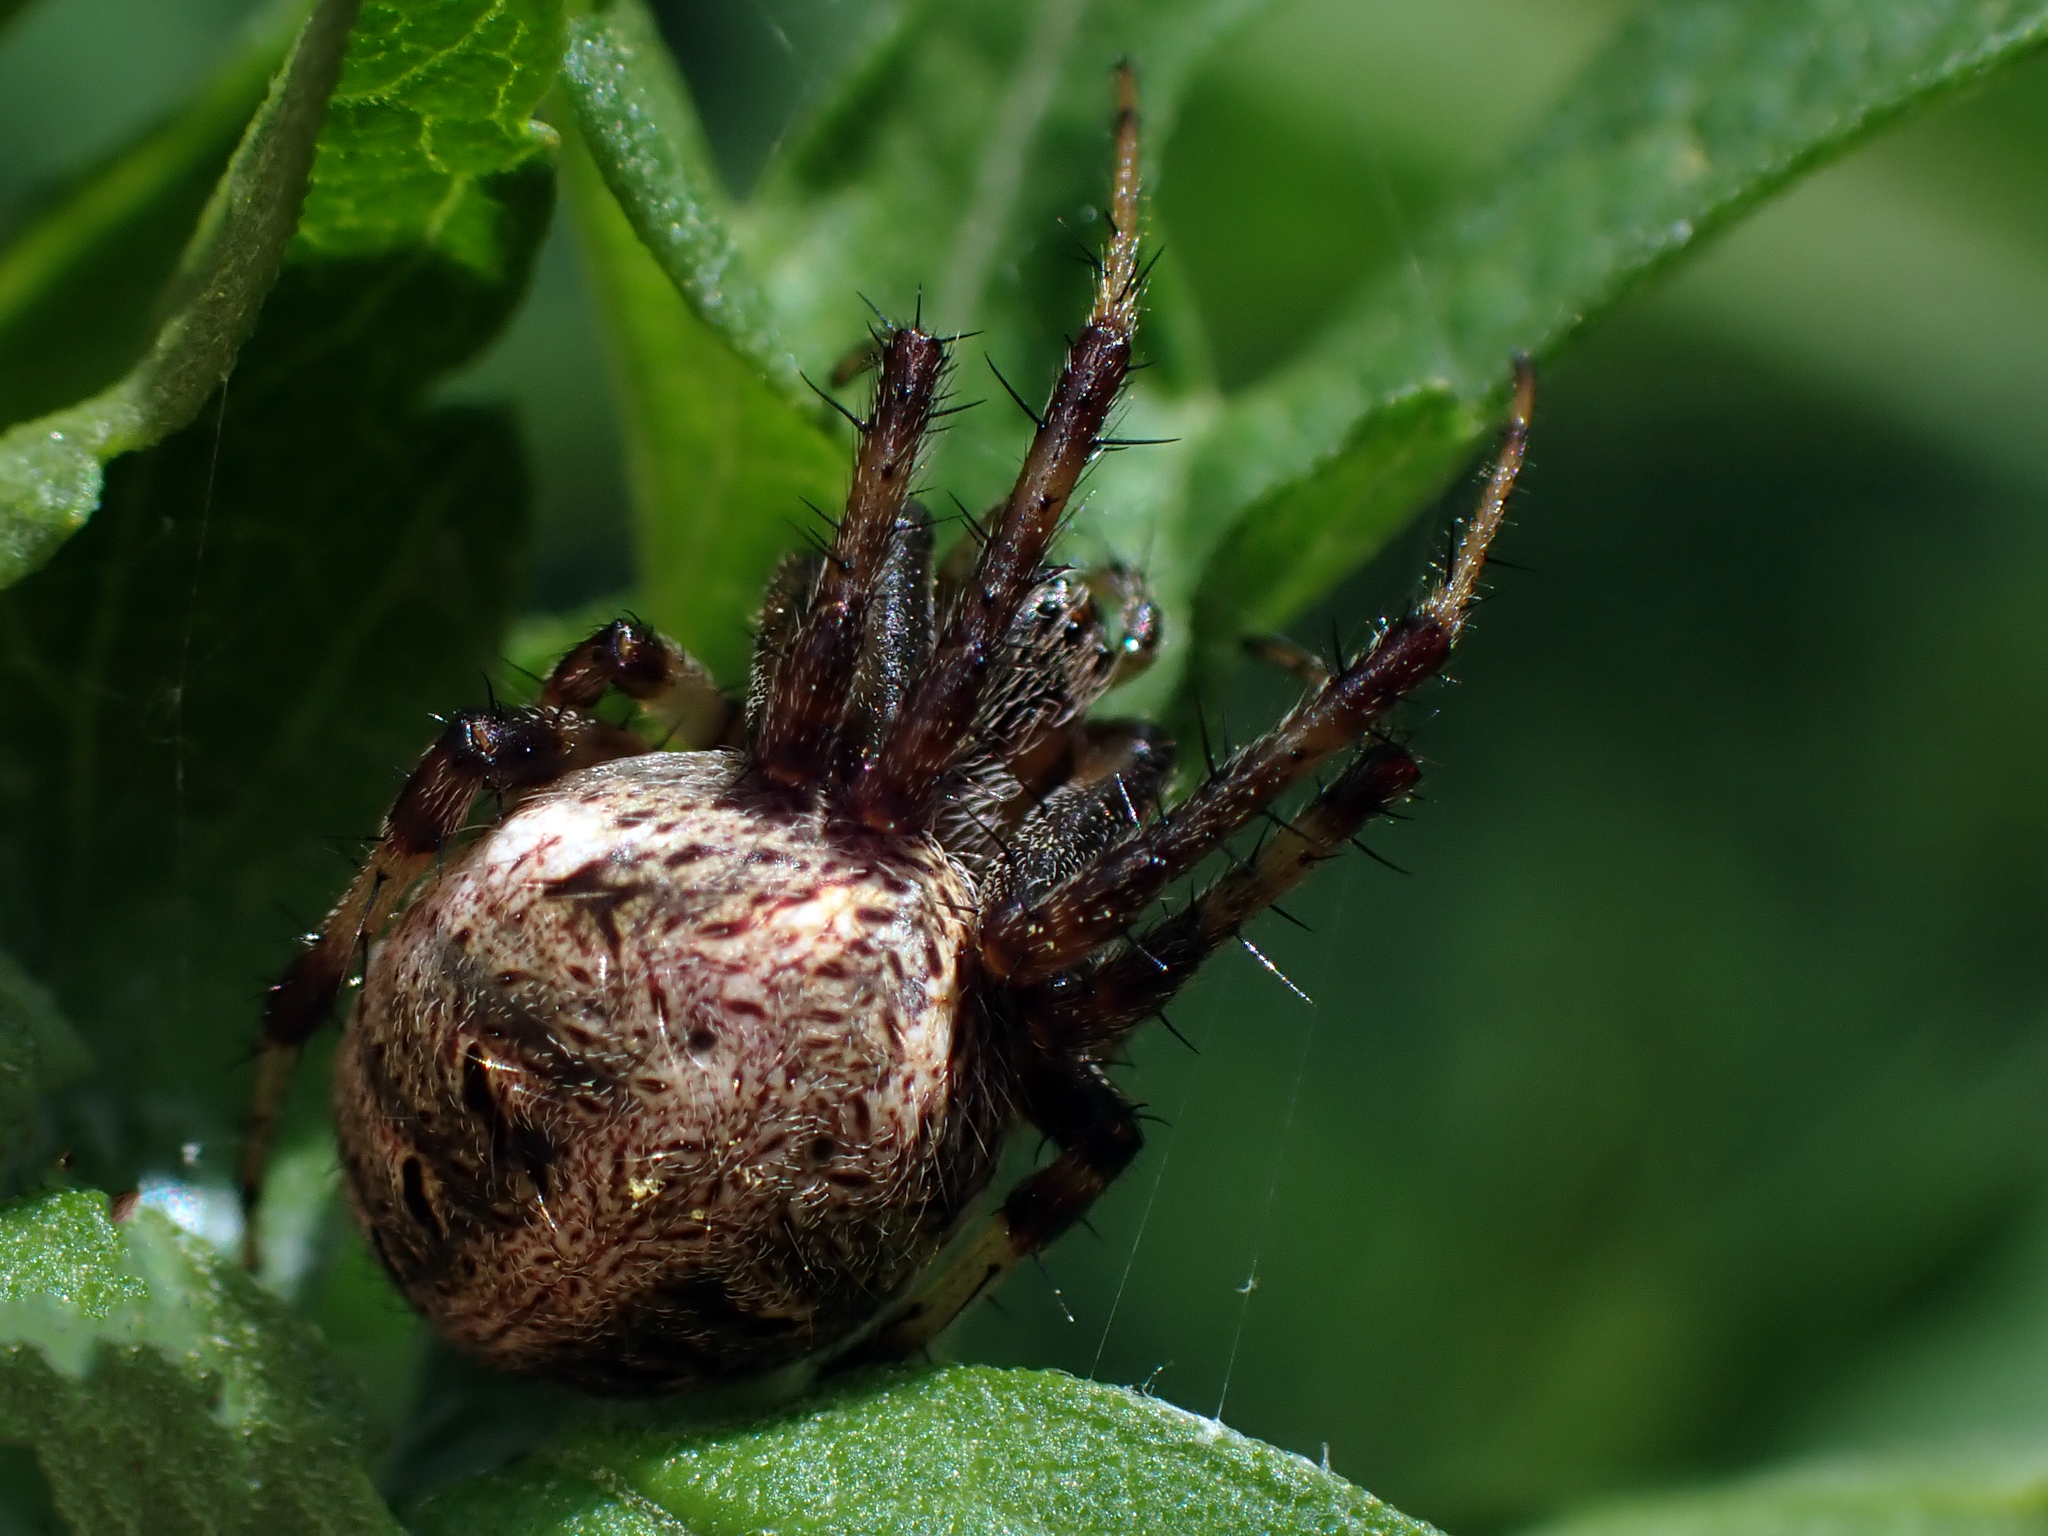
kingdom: Animalia
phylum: Arthropoda
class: Arachnida
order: Araneae
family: Araneidae
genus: Neoscona
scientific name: Neoscona arabesca
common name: Orb weavers
